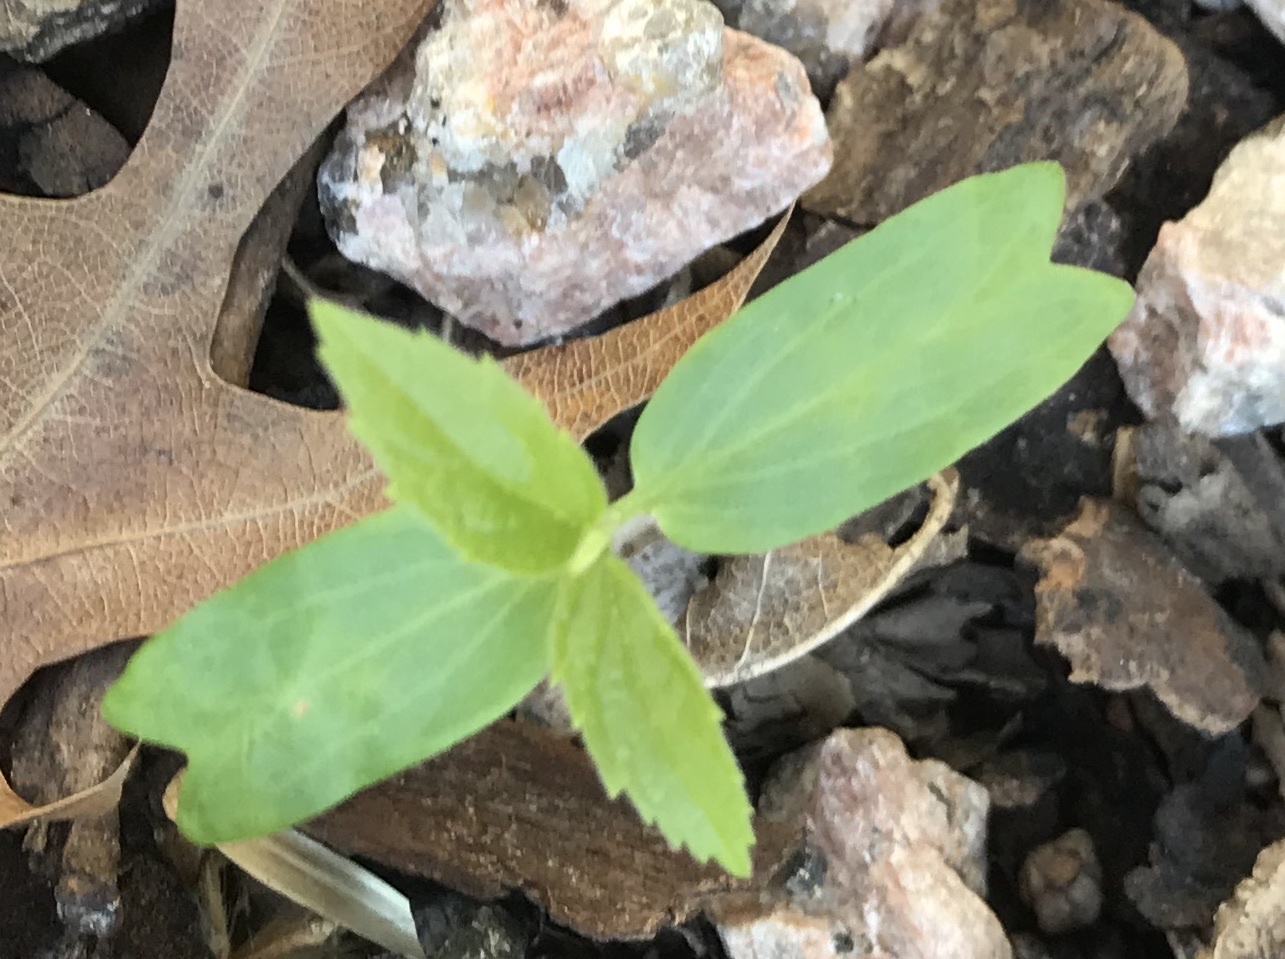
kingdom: Plantae
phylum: Tracheophyta
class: Magnoliopsida
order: Rosales
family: Cannabaceae
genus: Celtis
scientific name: Celtis laevigata
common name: Sugarberry
